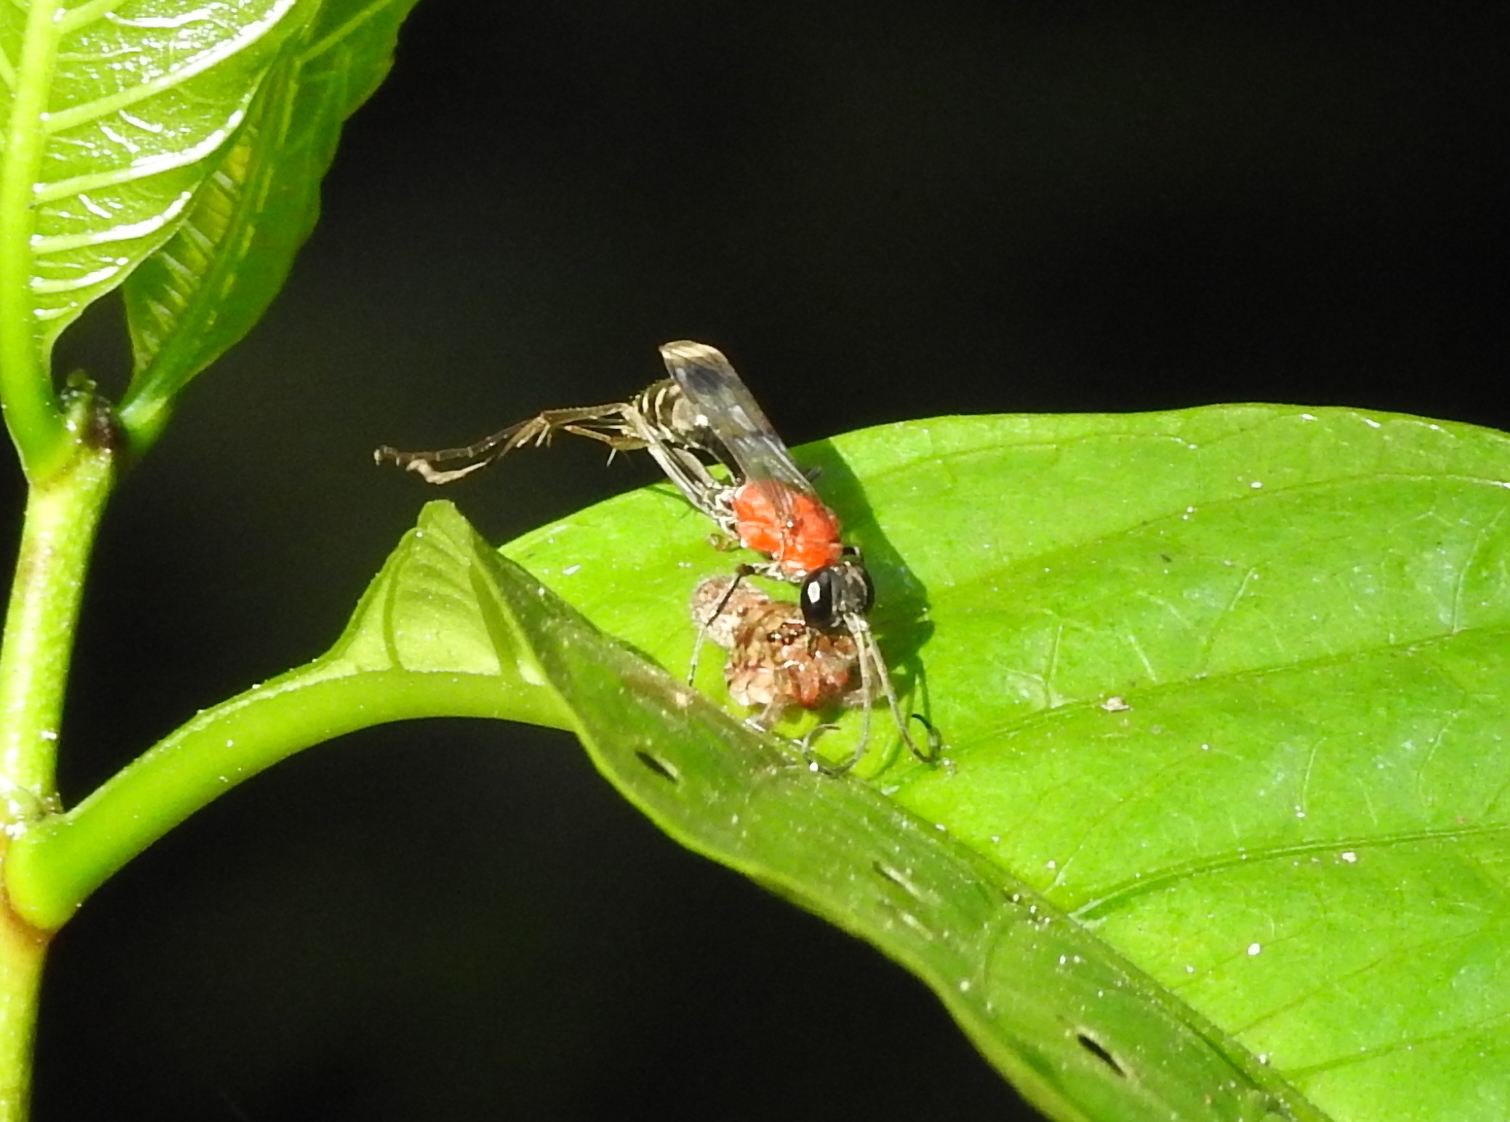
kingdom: Animalia
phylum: Arthropoda
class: Insecta
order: Hymenoptera
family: Pompilidae
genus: Auplopus
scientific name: Auplopus aegina
